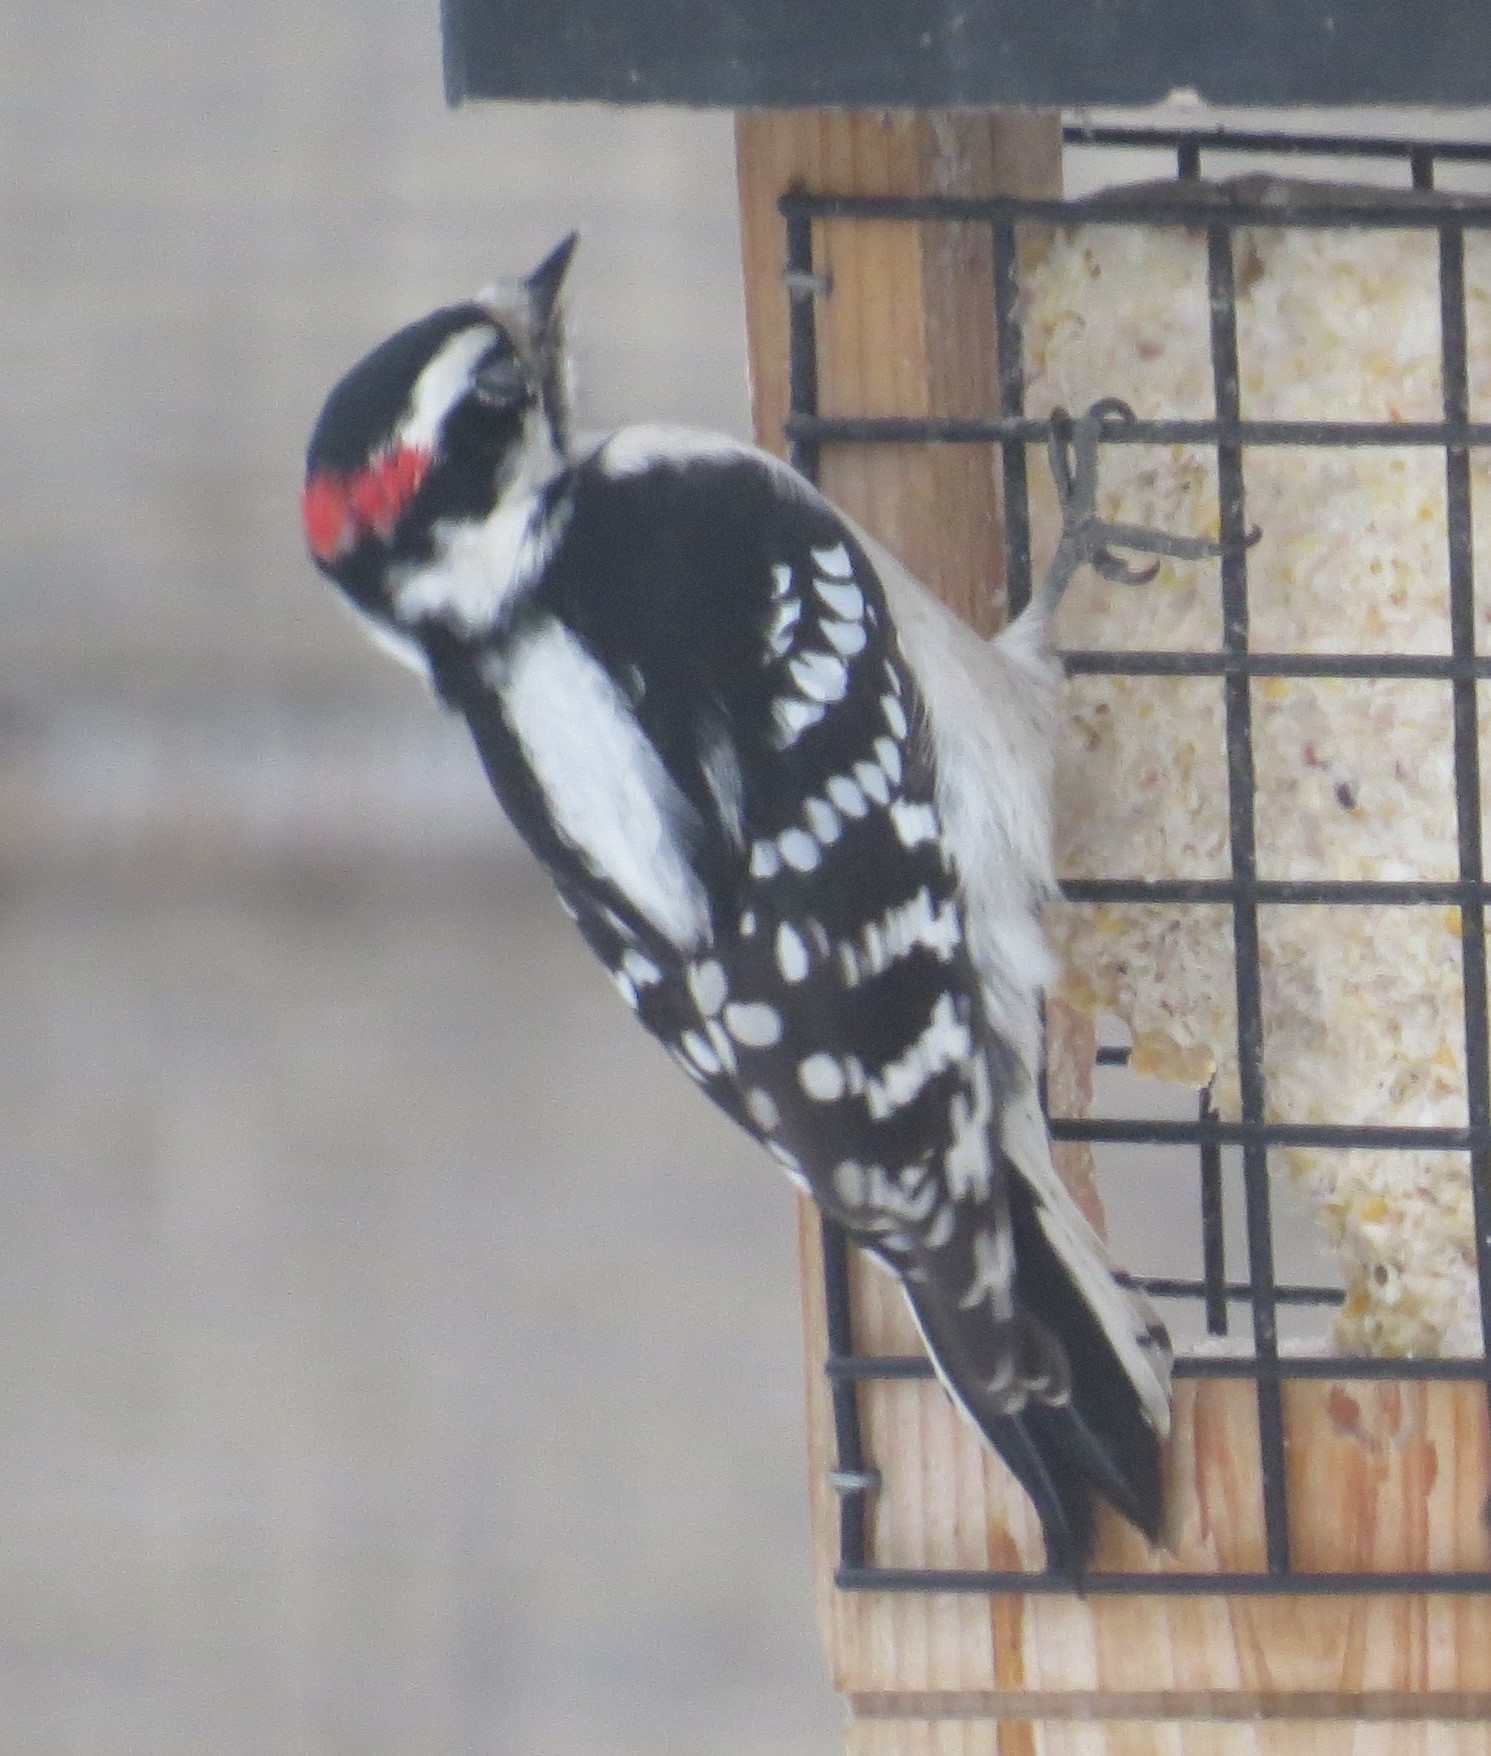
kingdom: Animalia
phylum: Chordata
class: Aves
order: Piciformes
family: Picidae
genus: Dryobates
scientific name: Dryobates pubescens
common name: Downy woodpecker
